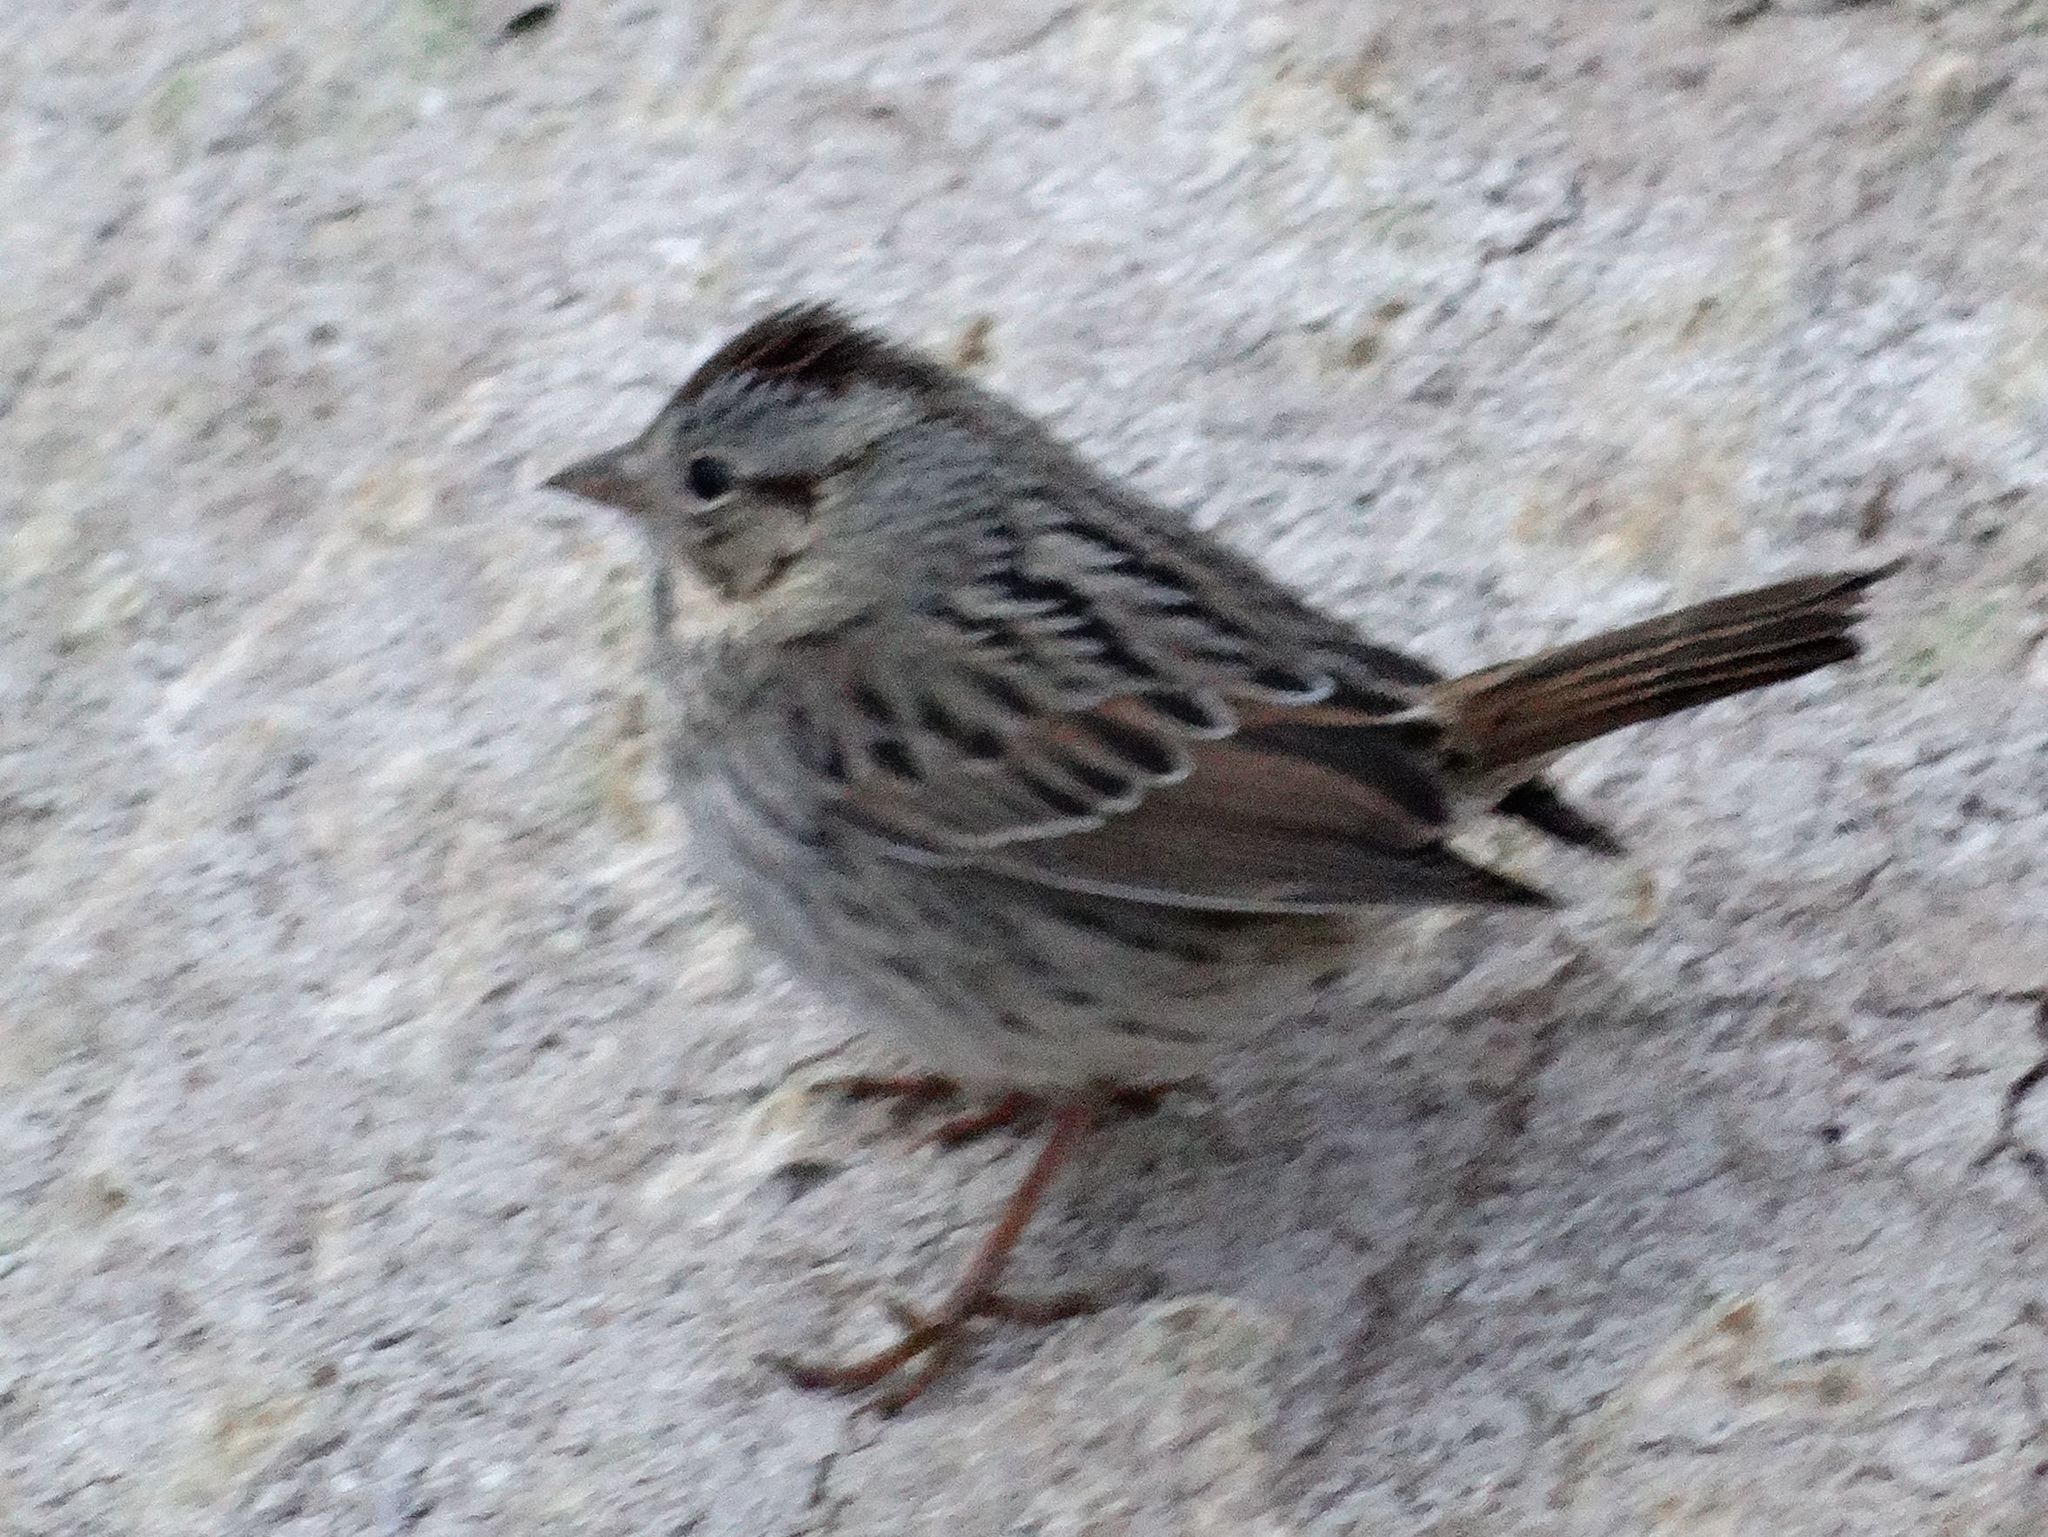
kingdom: Animalia
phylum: Chordata
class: Aves
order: Passeriformes
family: Passerellidae
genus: Melospiza
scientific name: Melospiza lincolnii
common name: Lincoln's sparrow
